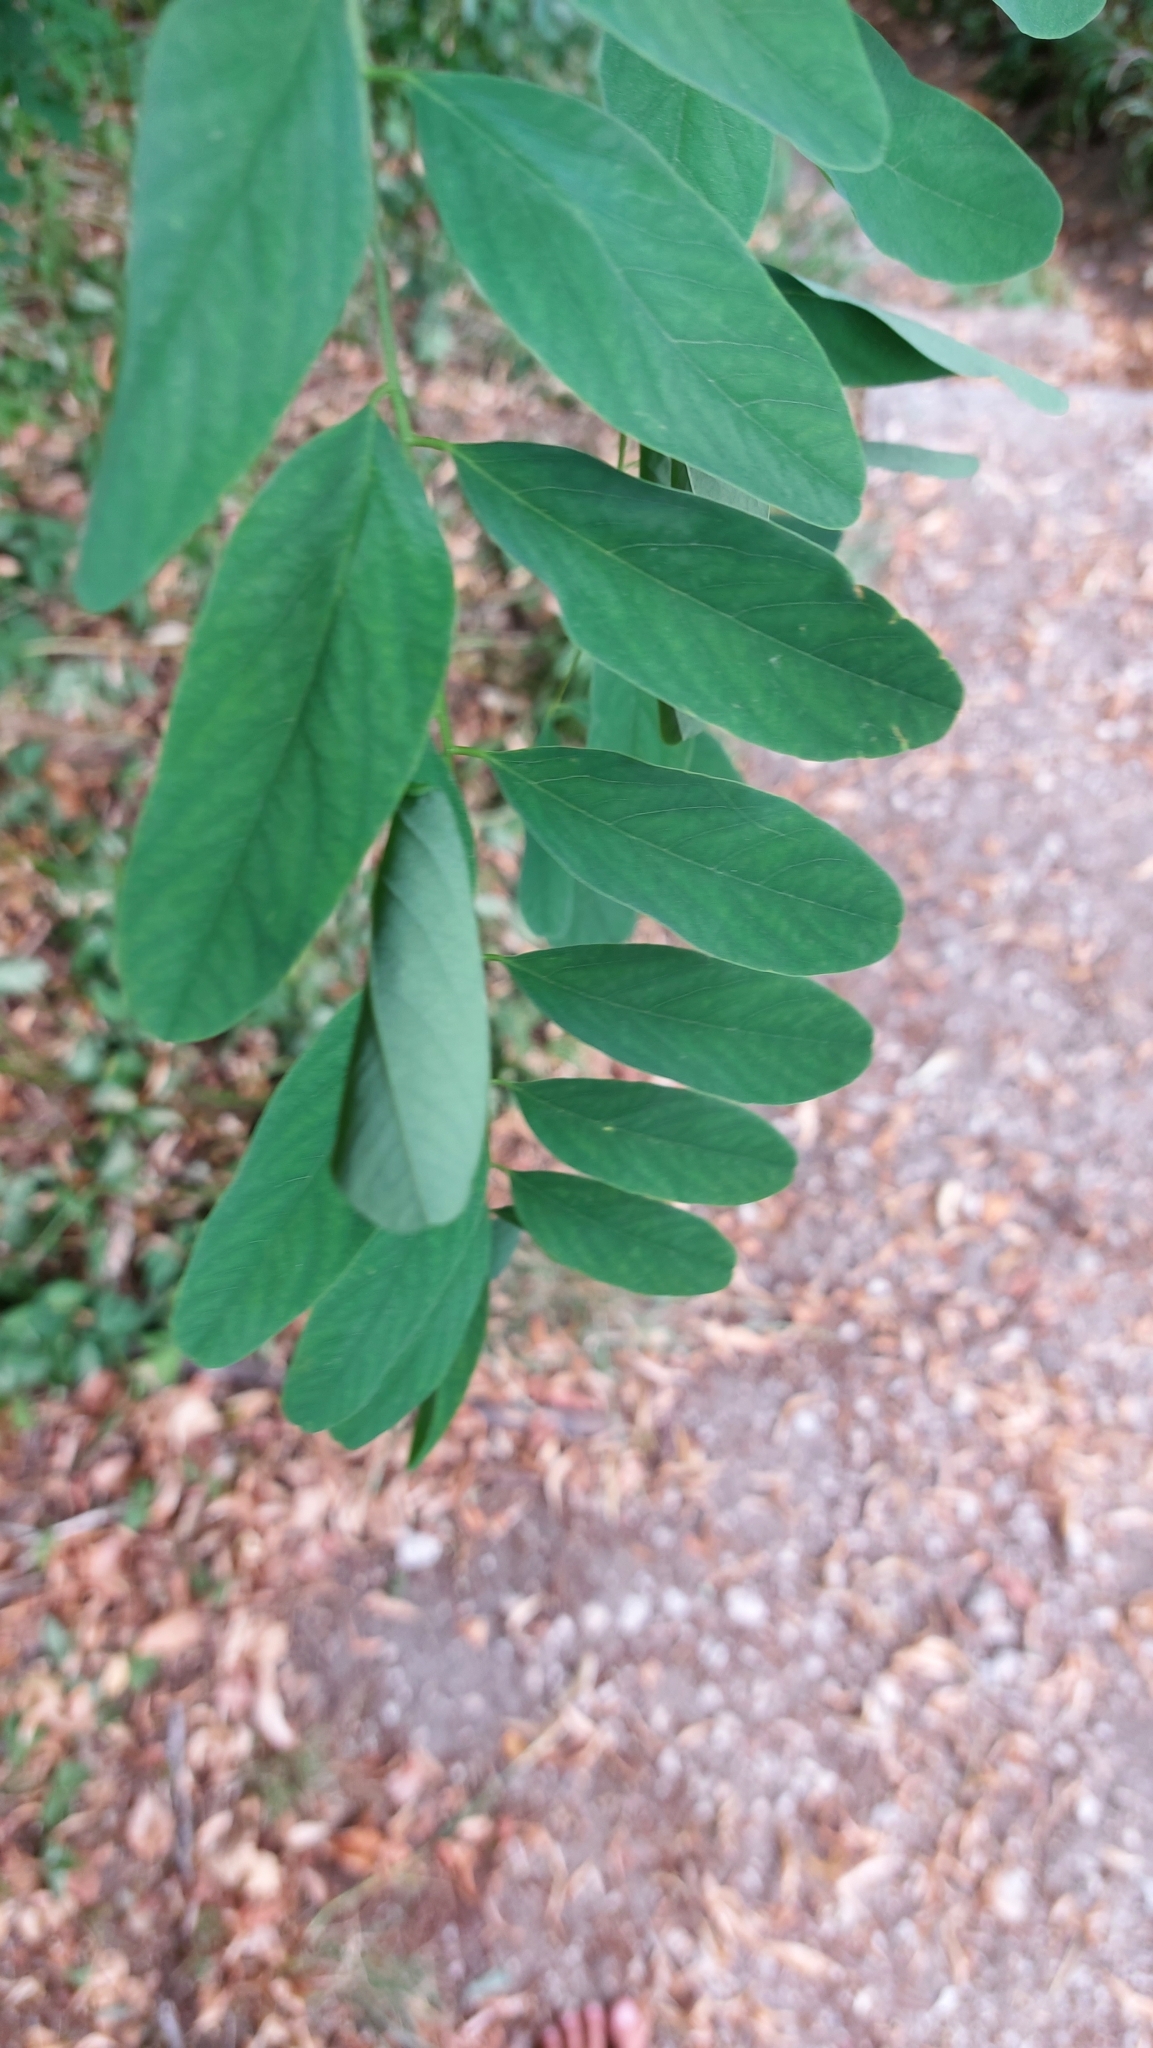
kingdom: Plantae
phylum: Tracheophyta
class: Magnoliopsida
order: Fabales
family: Fabaceae
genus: Robinia
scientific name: Robinia pseudoacacia
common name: Black locust
